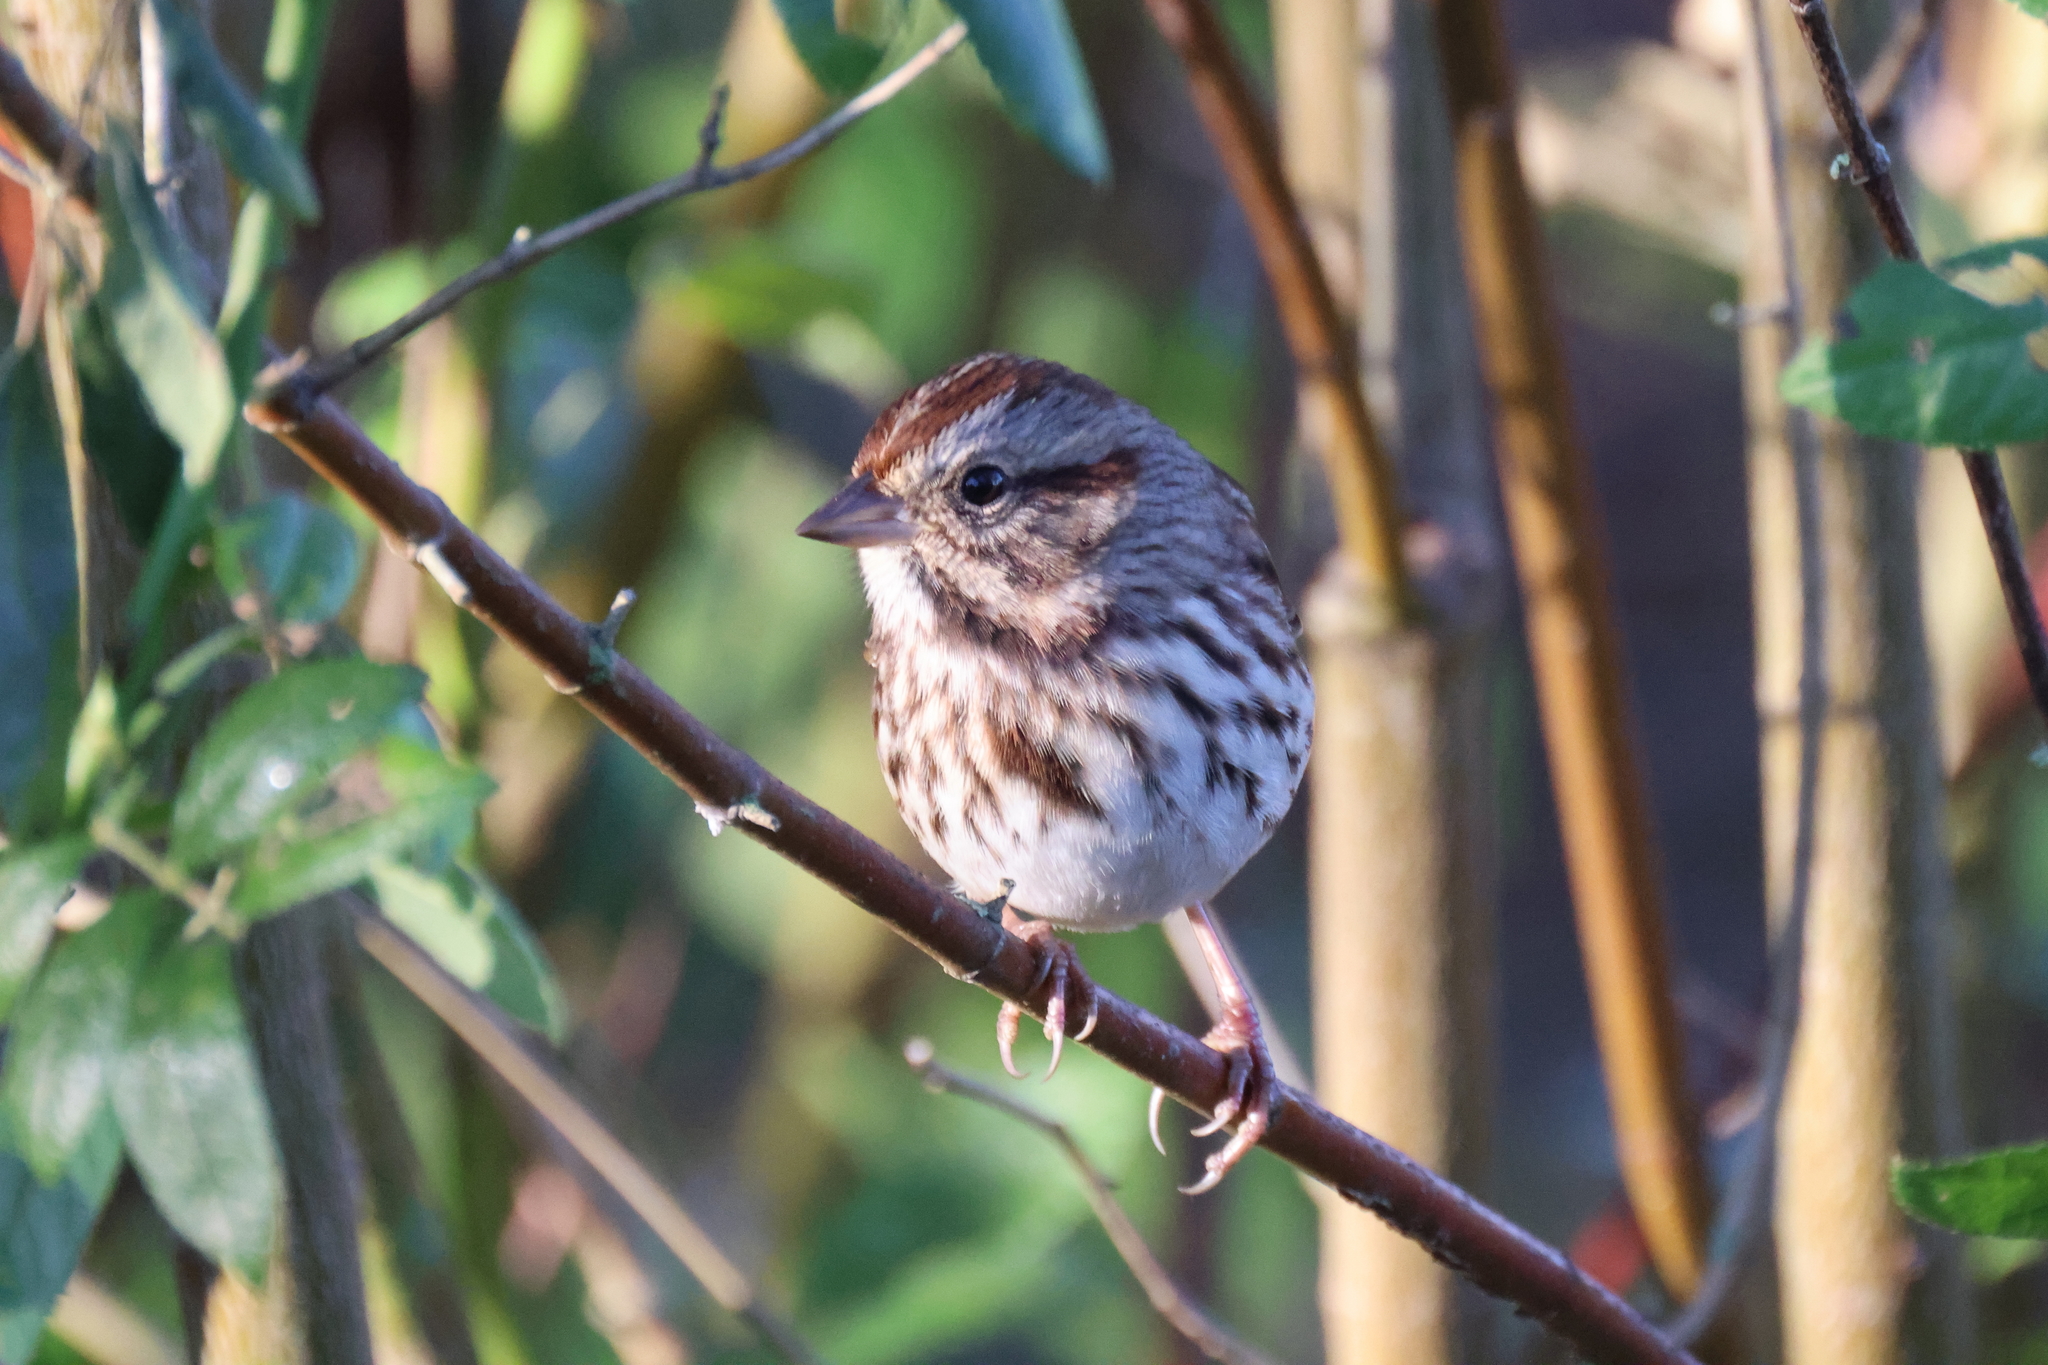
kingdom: Animalia
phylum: Chordata
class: Aves
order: Passeriformes
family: Passerellidae
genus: Melospiza
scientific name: Melospiza melodia
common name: Song sparrow
